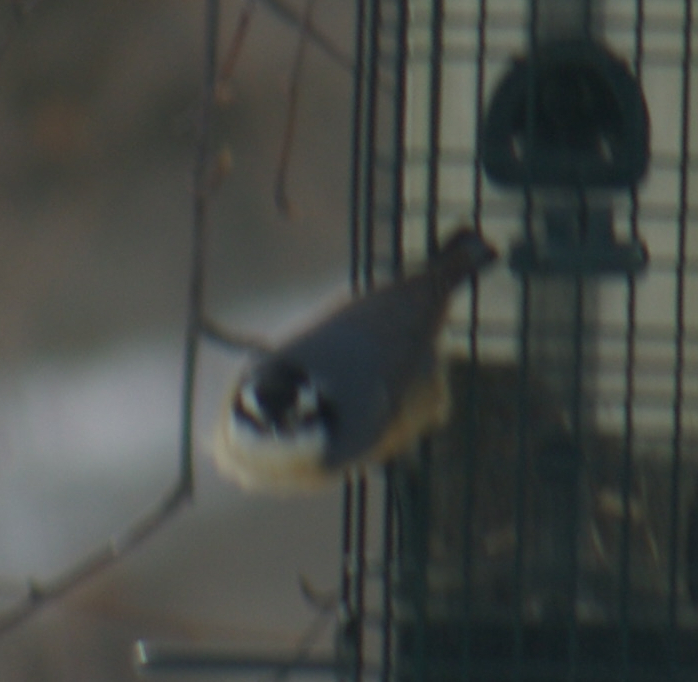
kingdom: Animalia
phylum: Chordata
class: Aves
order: Passeriformes
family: Sittidae
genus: Sitta
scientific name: Sitta canadensis
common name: Red-breasted nuthatch
